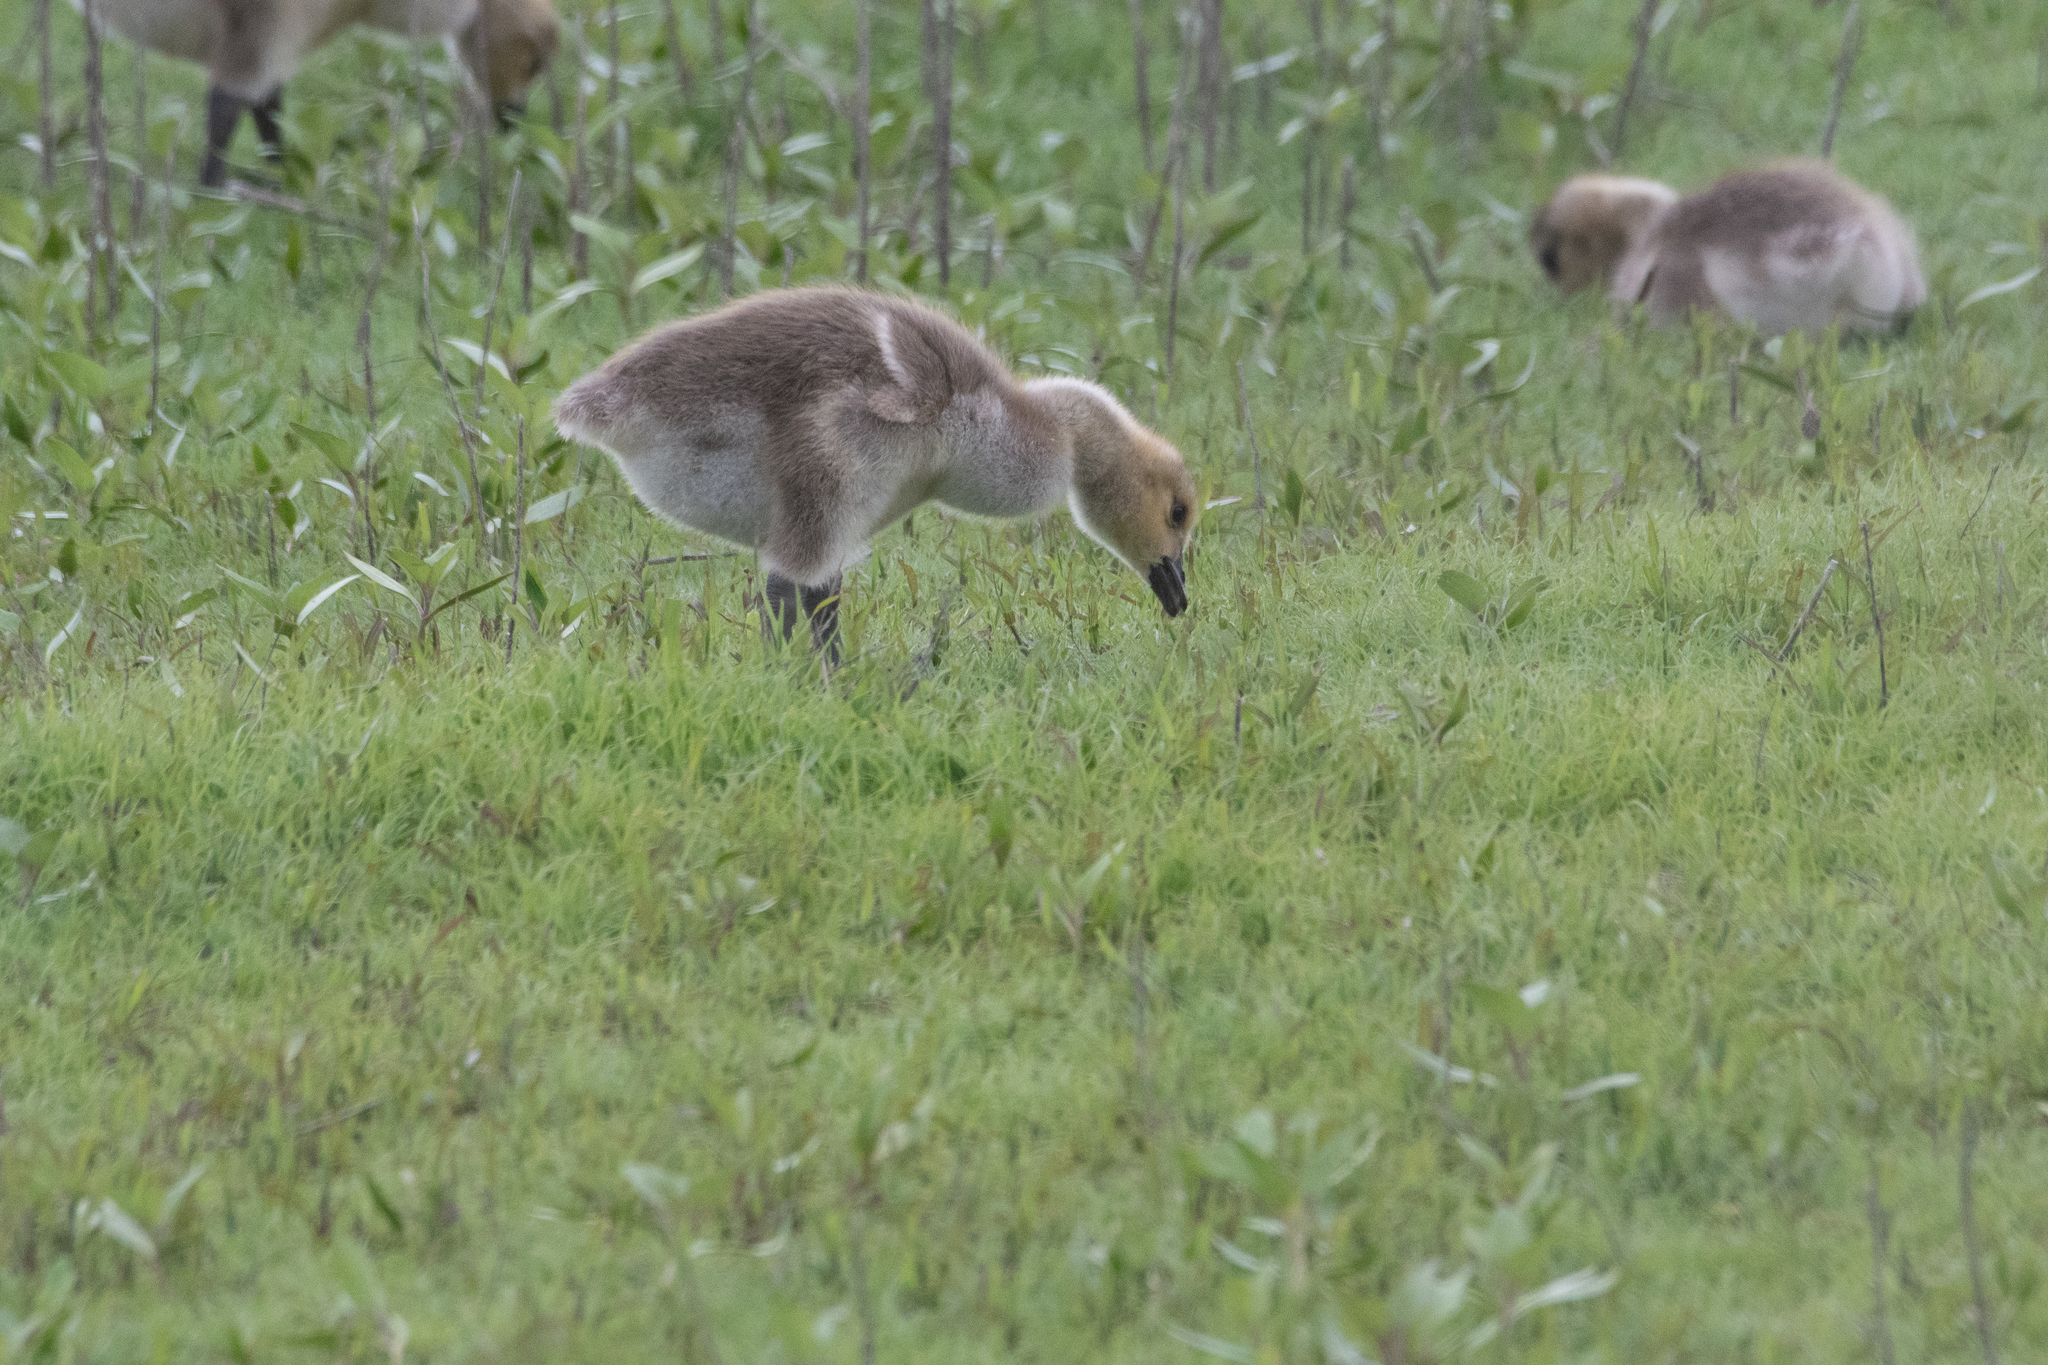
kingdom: Animalia
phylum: Chordata
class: Aves
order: Anseriformes
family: Anatidae
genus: Branta
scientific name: Branta canadensis
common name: Canada goose
